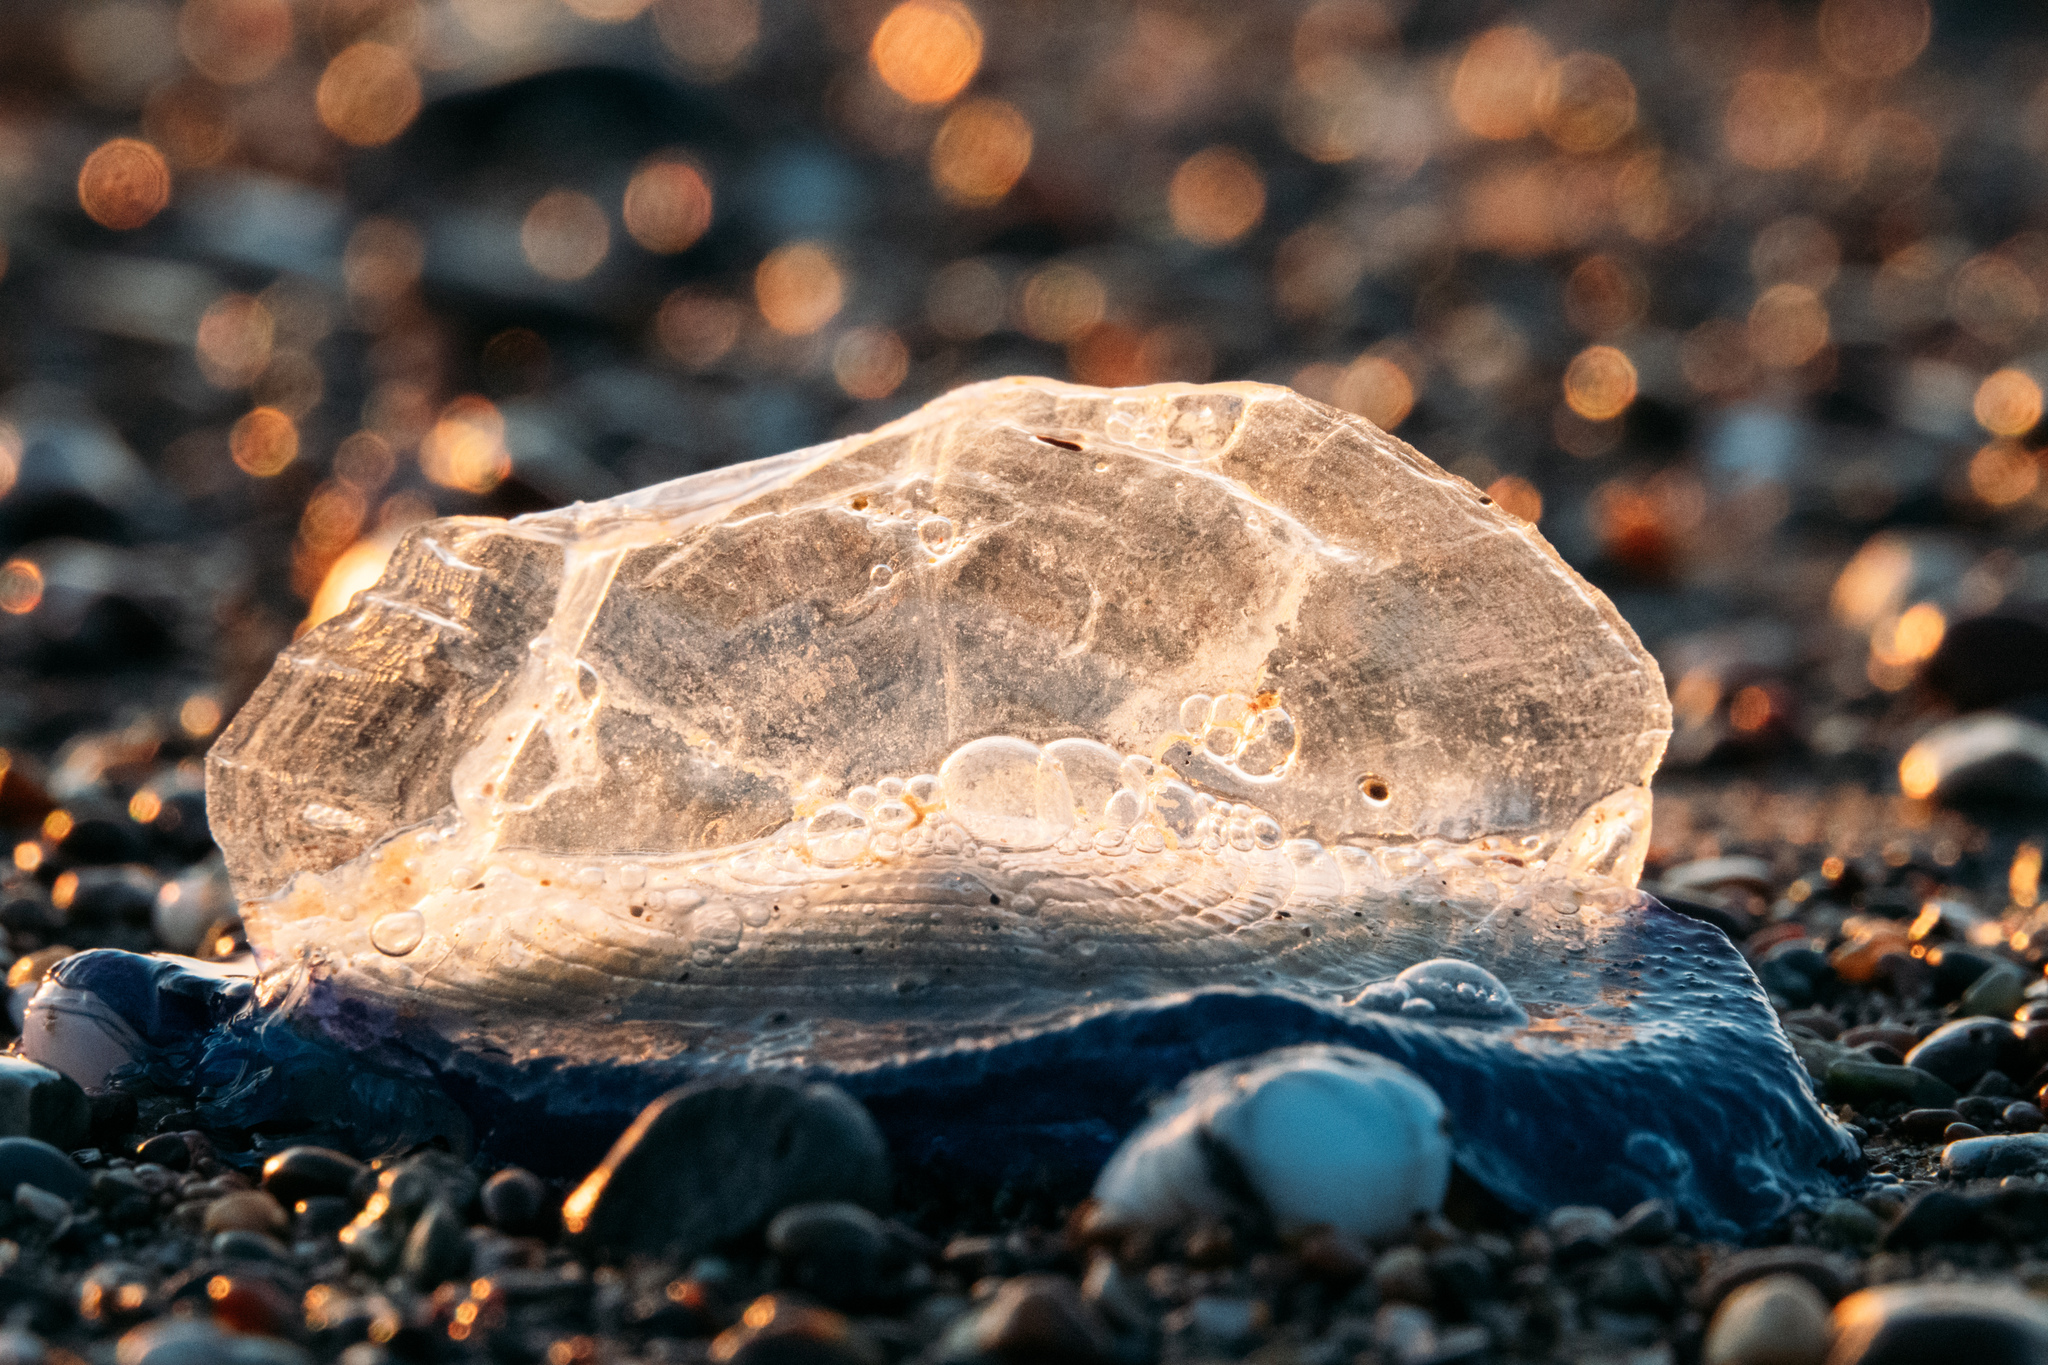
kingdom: Animalia
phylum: Cnidaria
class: Hydrozoa
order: Anthoathecata
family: Porpitidae
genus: Velella
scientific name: Velella velella
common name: By-the-wind-sailor
